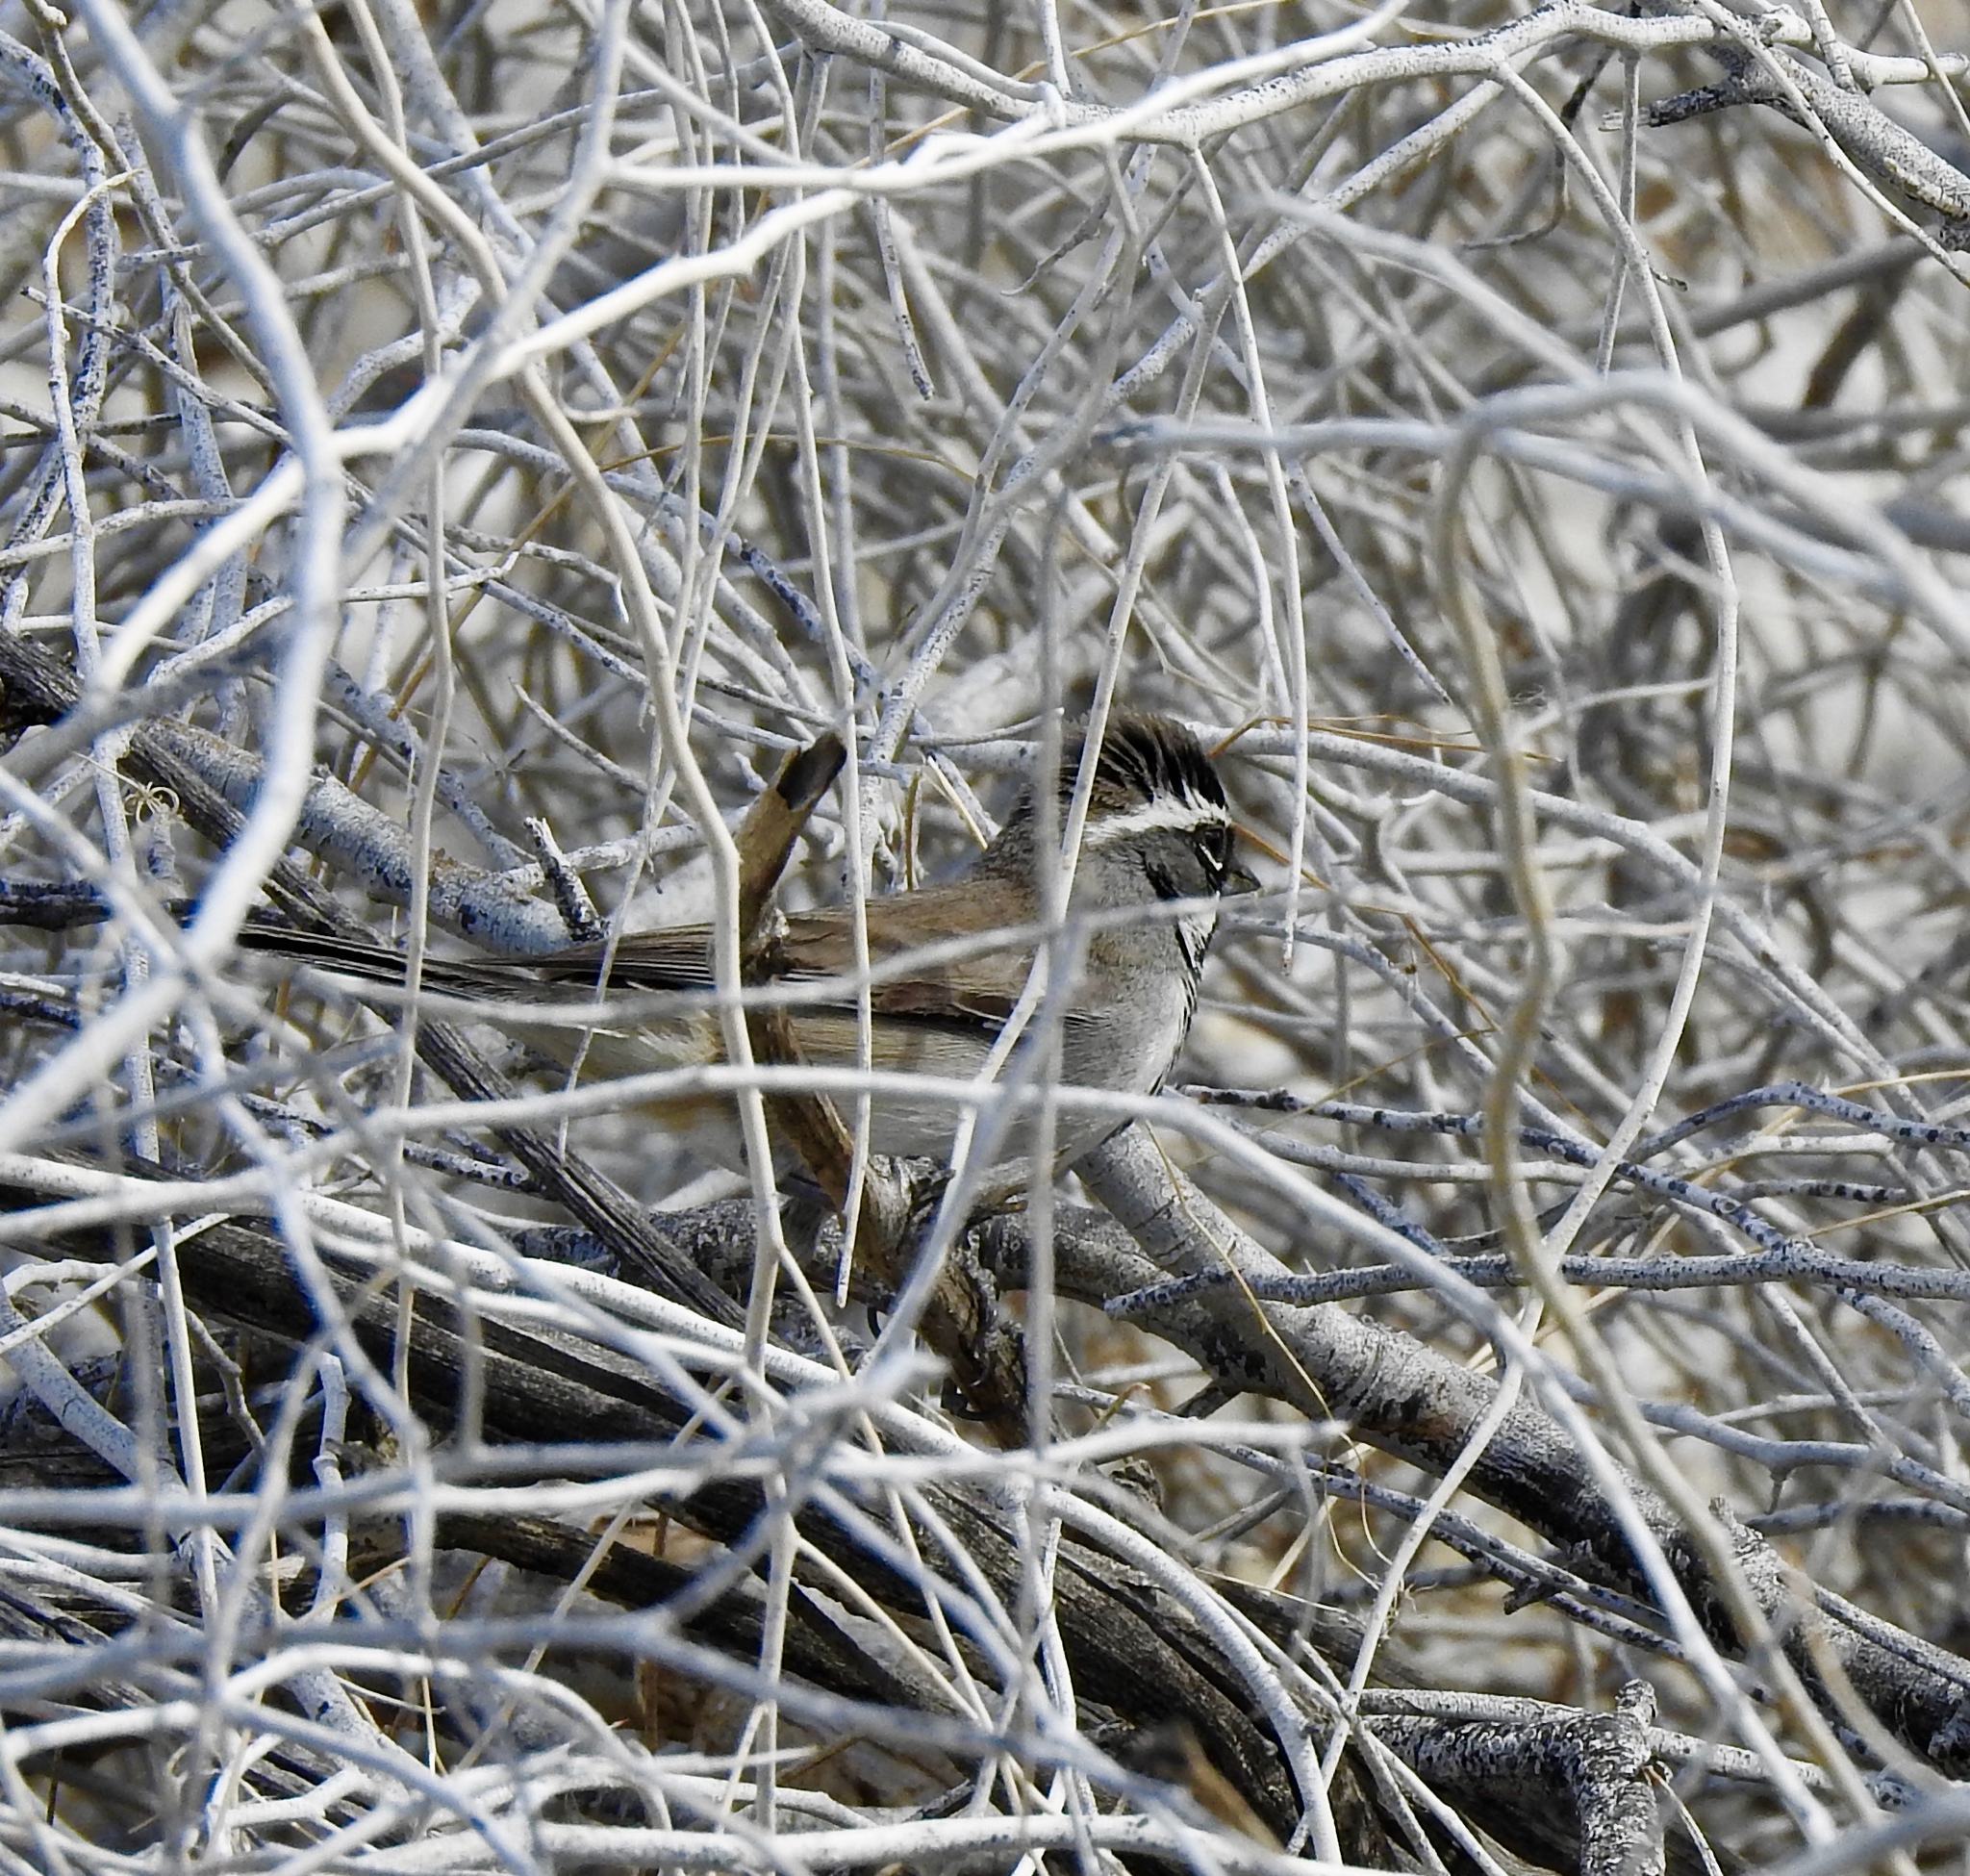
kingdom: Animalia
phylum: Chordata
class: Aves
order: Passeriformes
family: Passerellidae
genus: Amphispiza
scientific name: Amphispiza bilineata
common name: Black-throated sparrow
